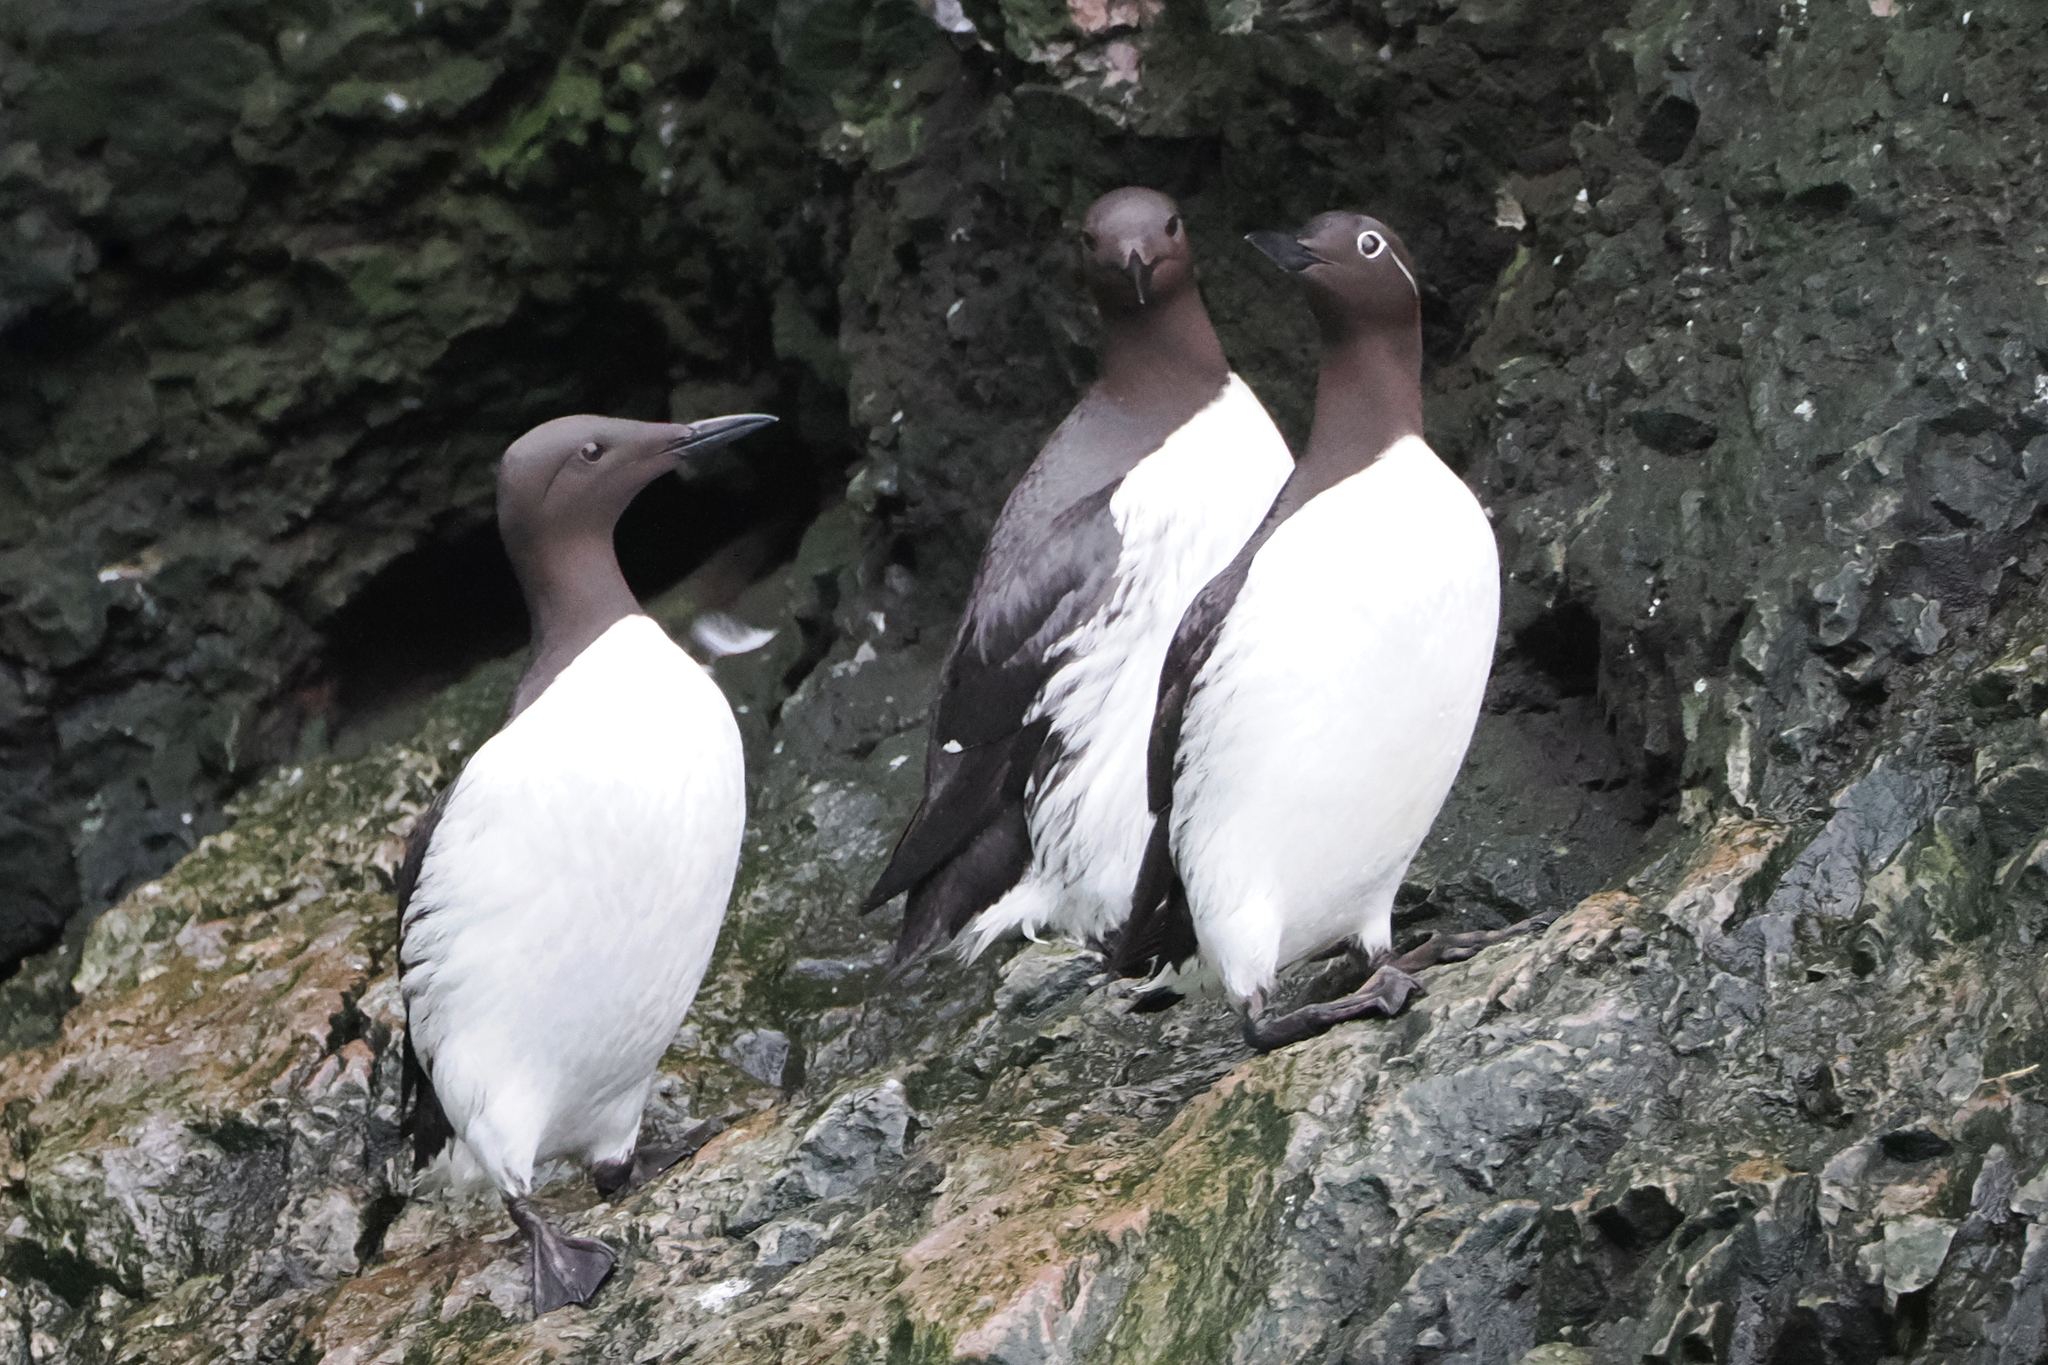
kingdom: Animalia
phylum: Chordata
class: Aves
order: Charadriiformes
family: Alcidae
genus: Uria
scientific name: Uria aalge
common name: Common murre
